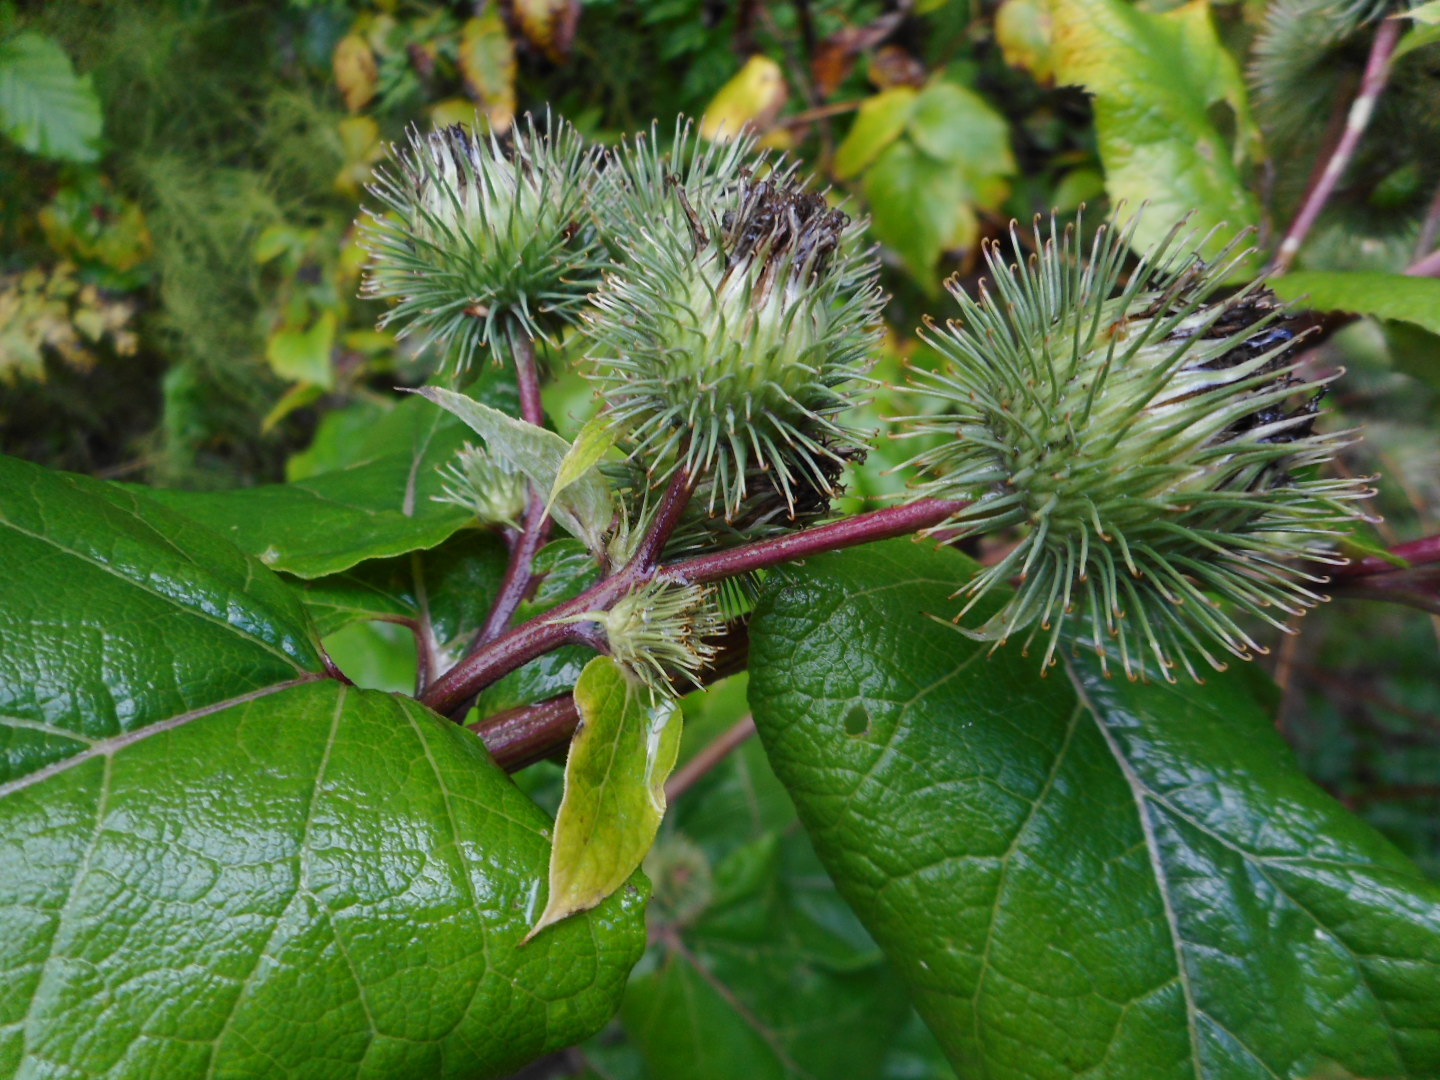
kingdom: Plantae
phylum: Tracheophyta
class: Magnoliopsida
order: Asterales
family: Asteraceae
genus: Arctium
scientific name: Arctium lappa
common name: Greater burdock
